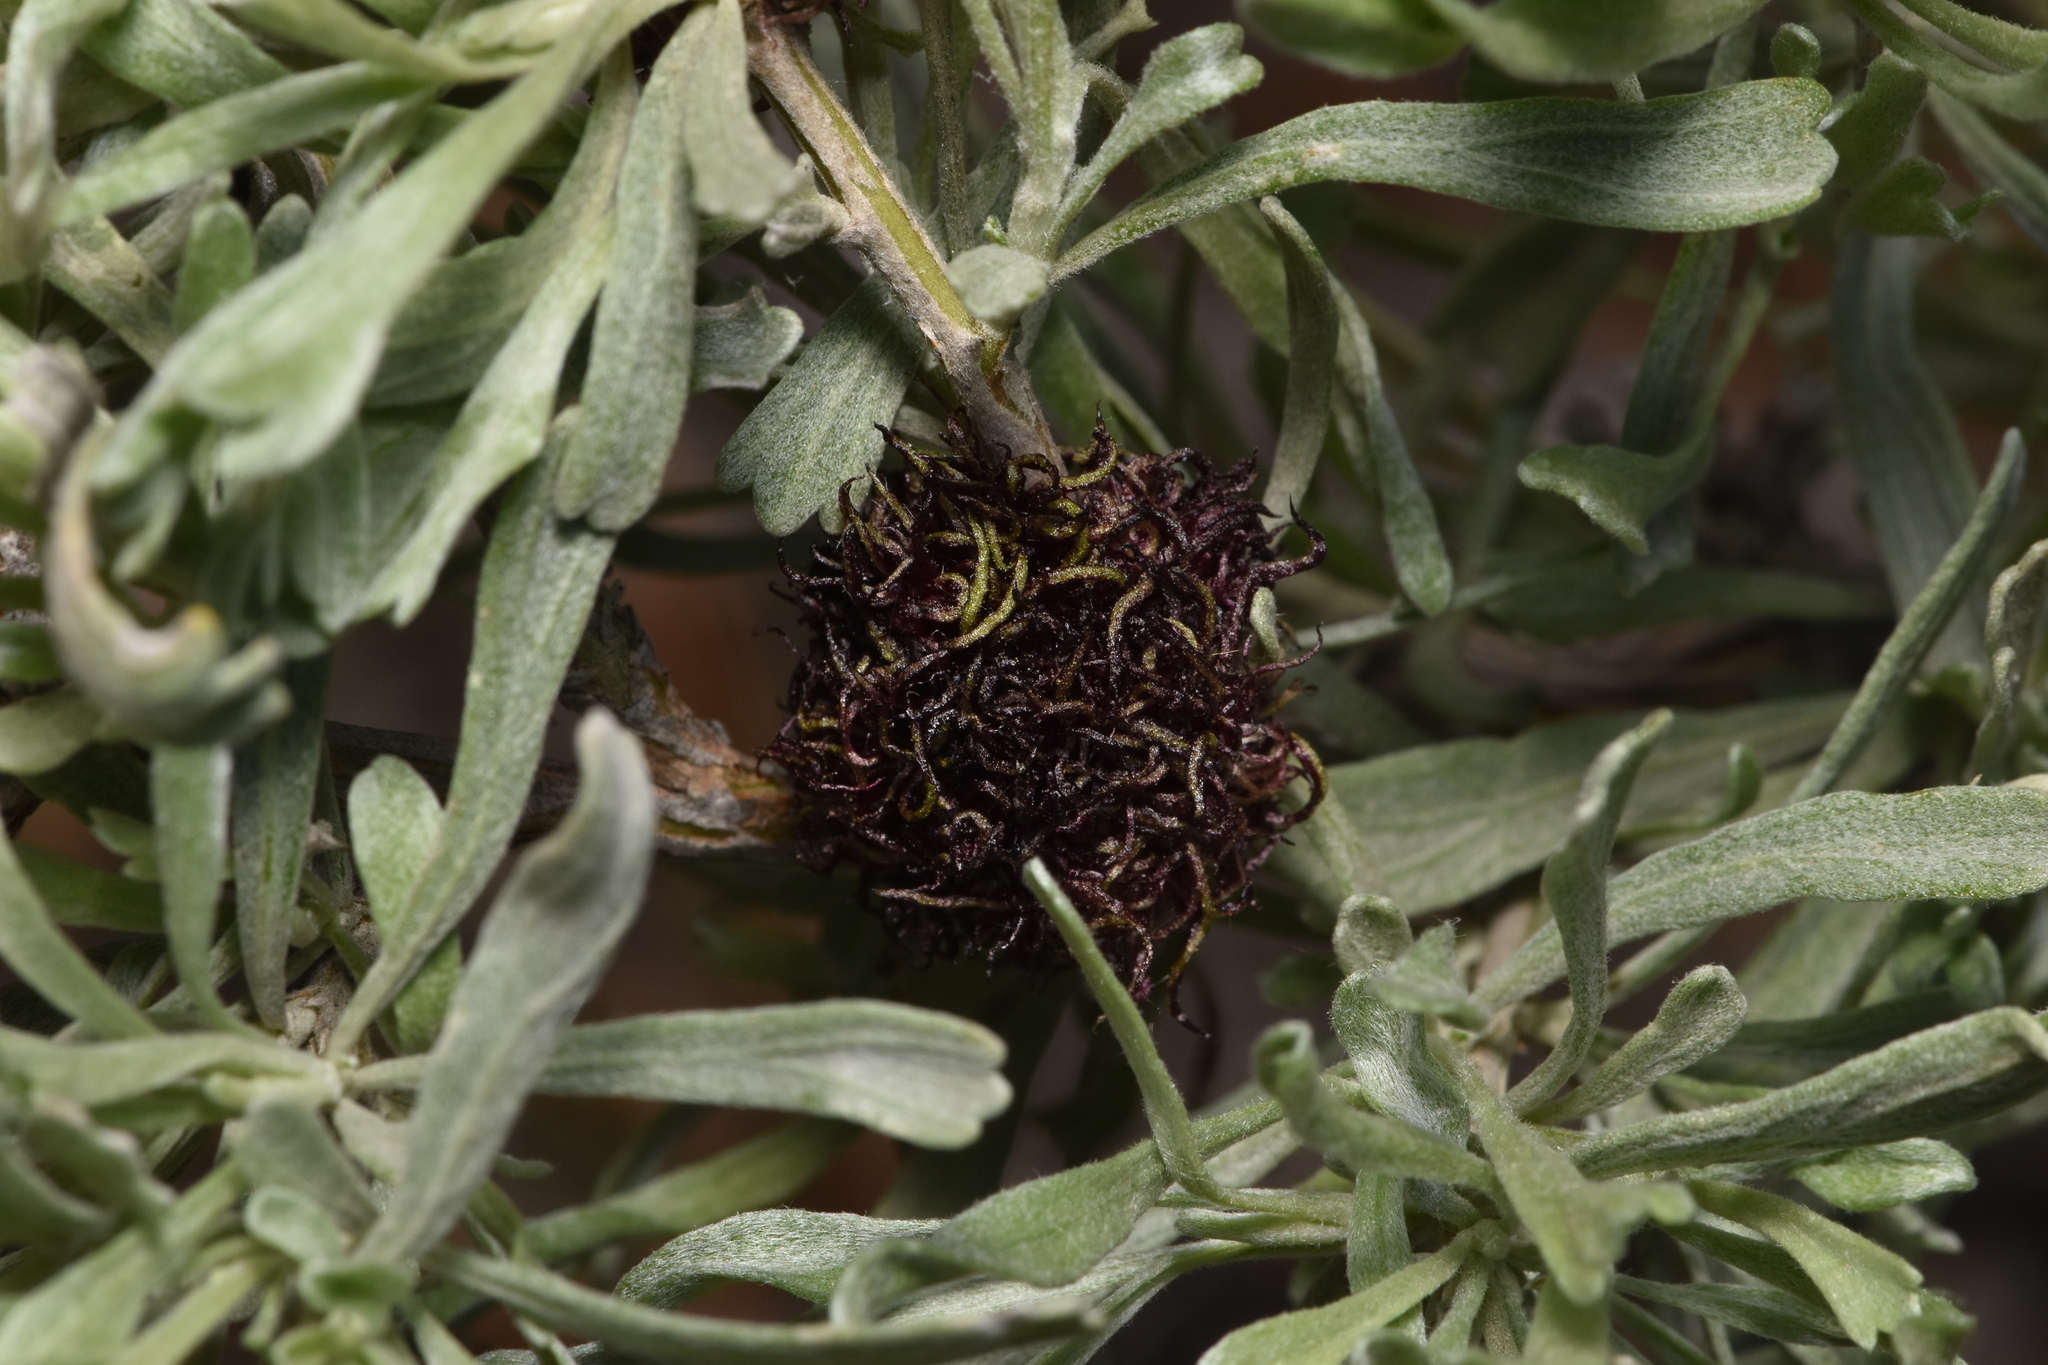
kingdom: Animalia
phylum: Arthropoda
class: Insecta
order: Diptera
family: Cecidomyiidae
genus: Rhopalomyia
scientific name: Rhopalomyia medusa
